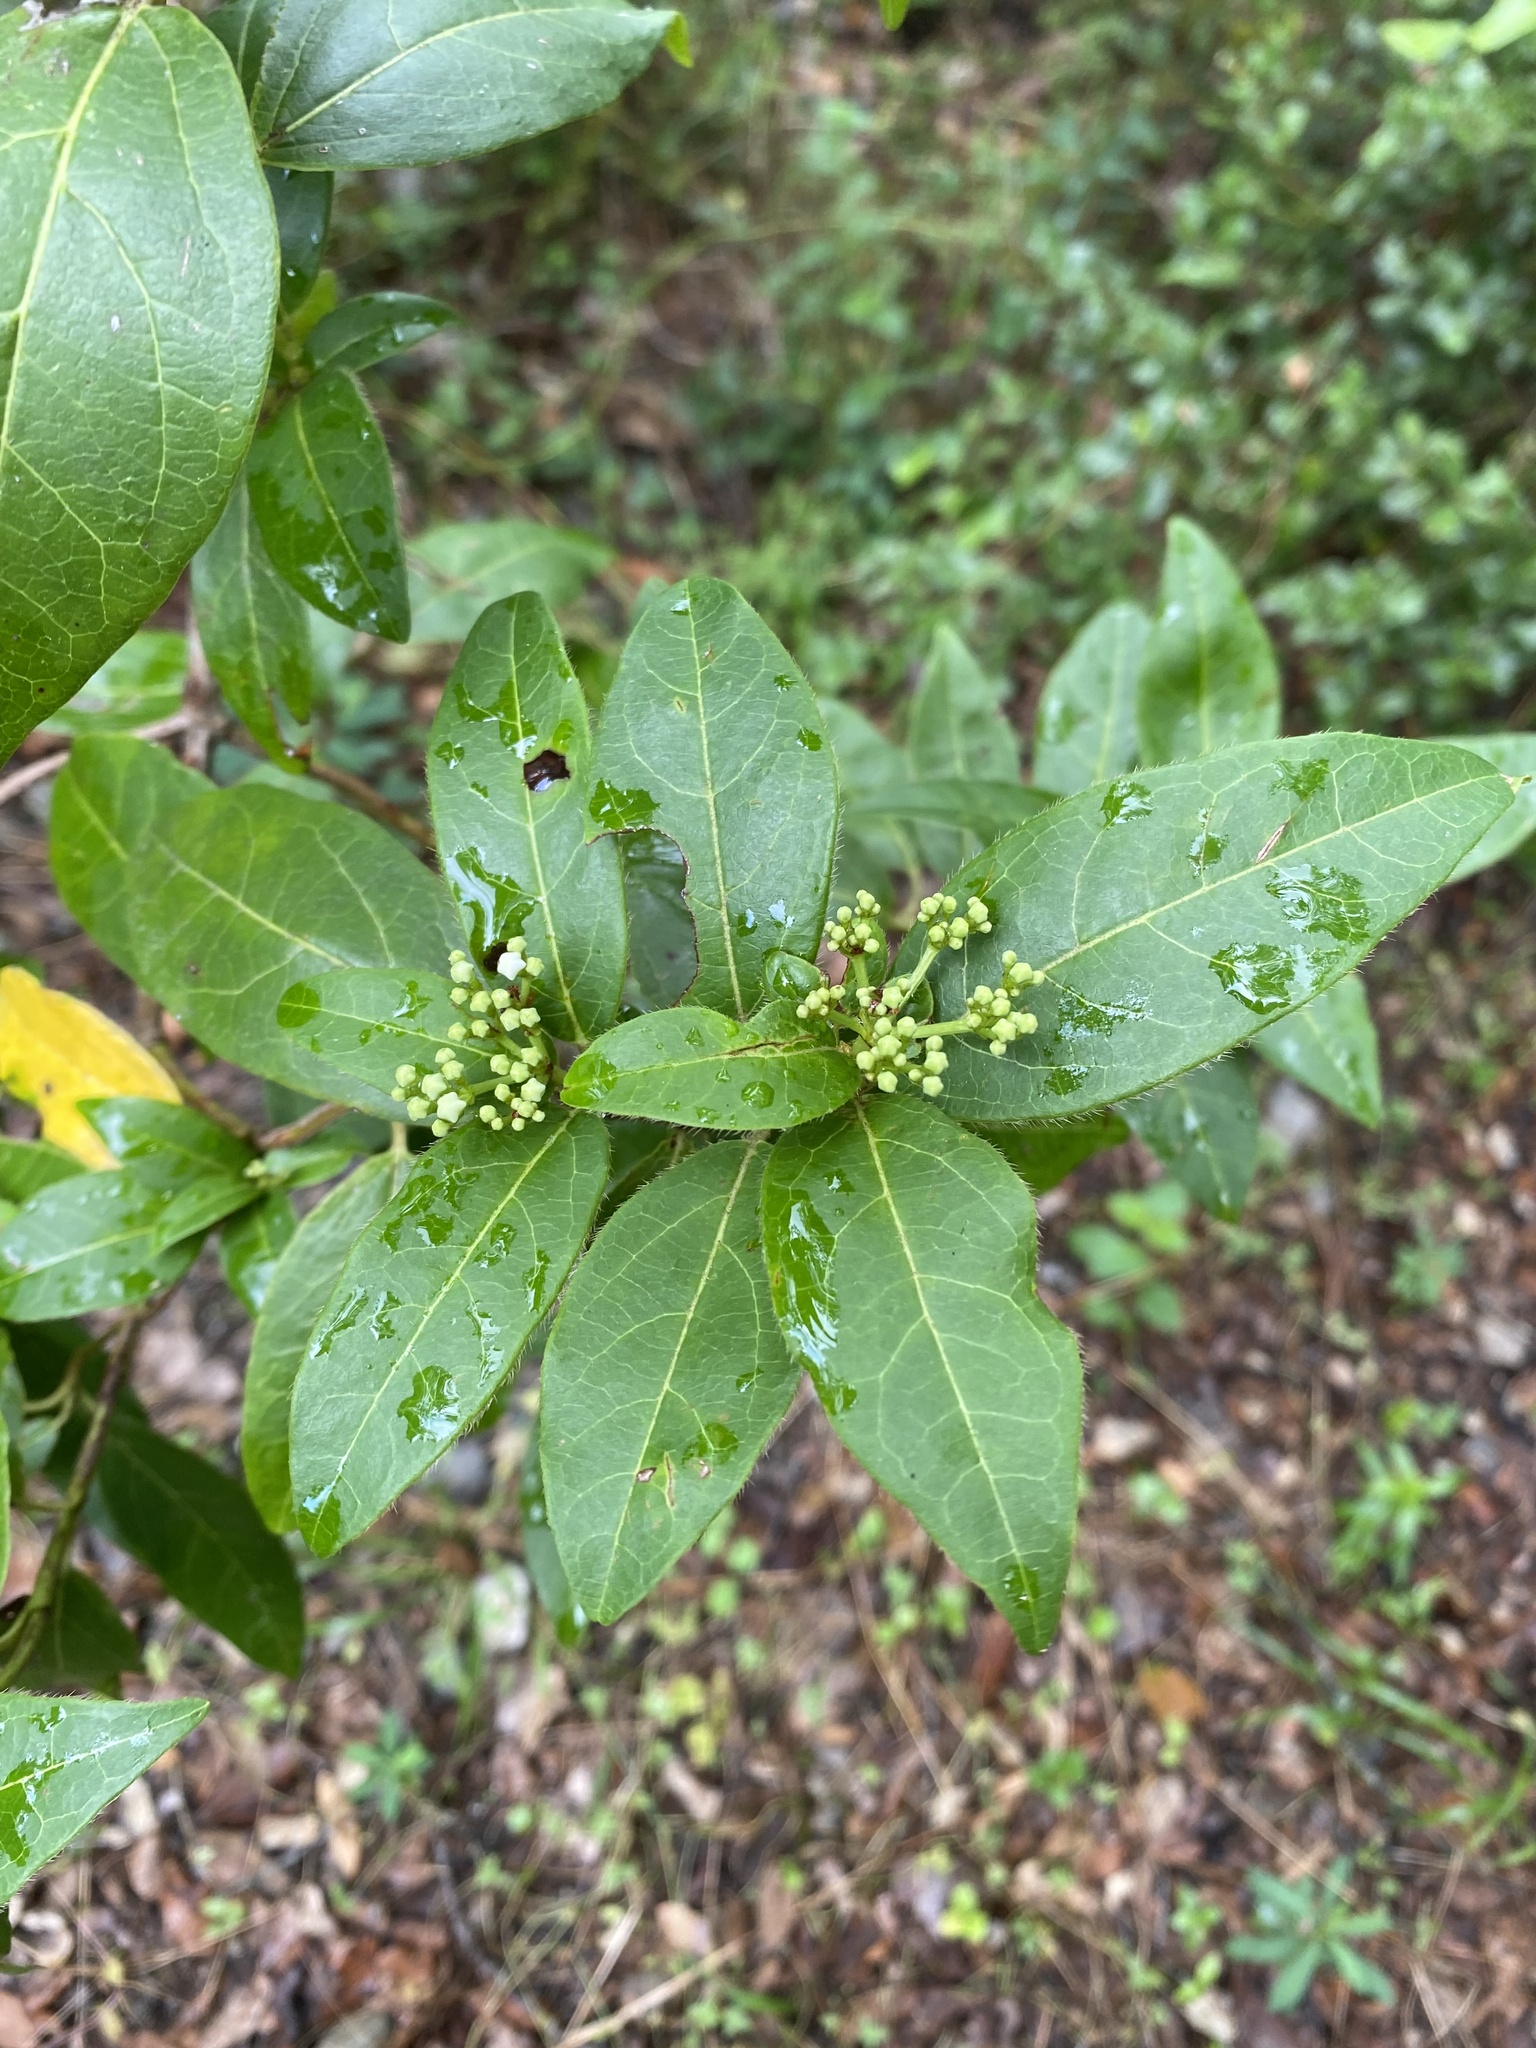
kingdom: Plantae
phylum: Tracheophyta
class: Magnoliopsida
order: Dipsacales
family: Viburnaceae
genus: Viburnum
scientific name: Viburnum tinus
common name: Laurustinus
